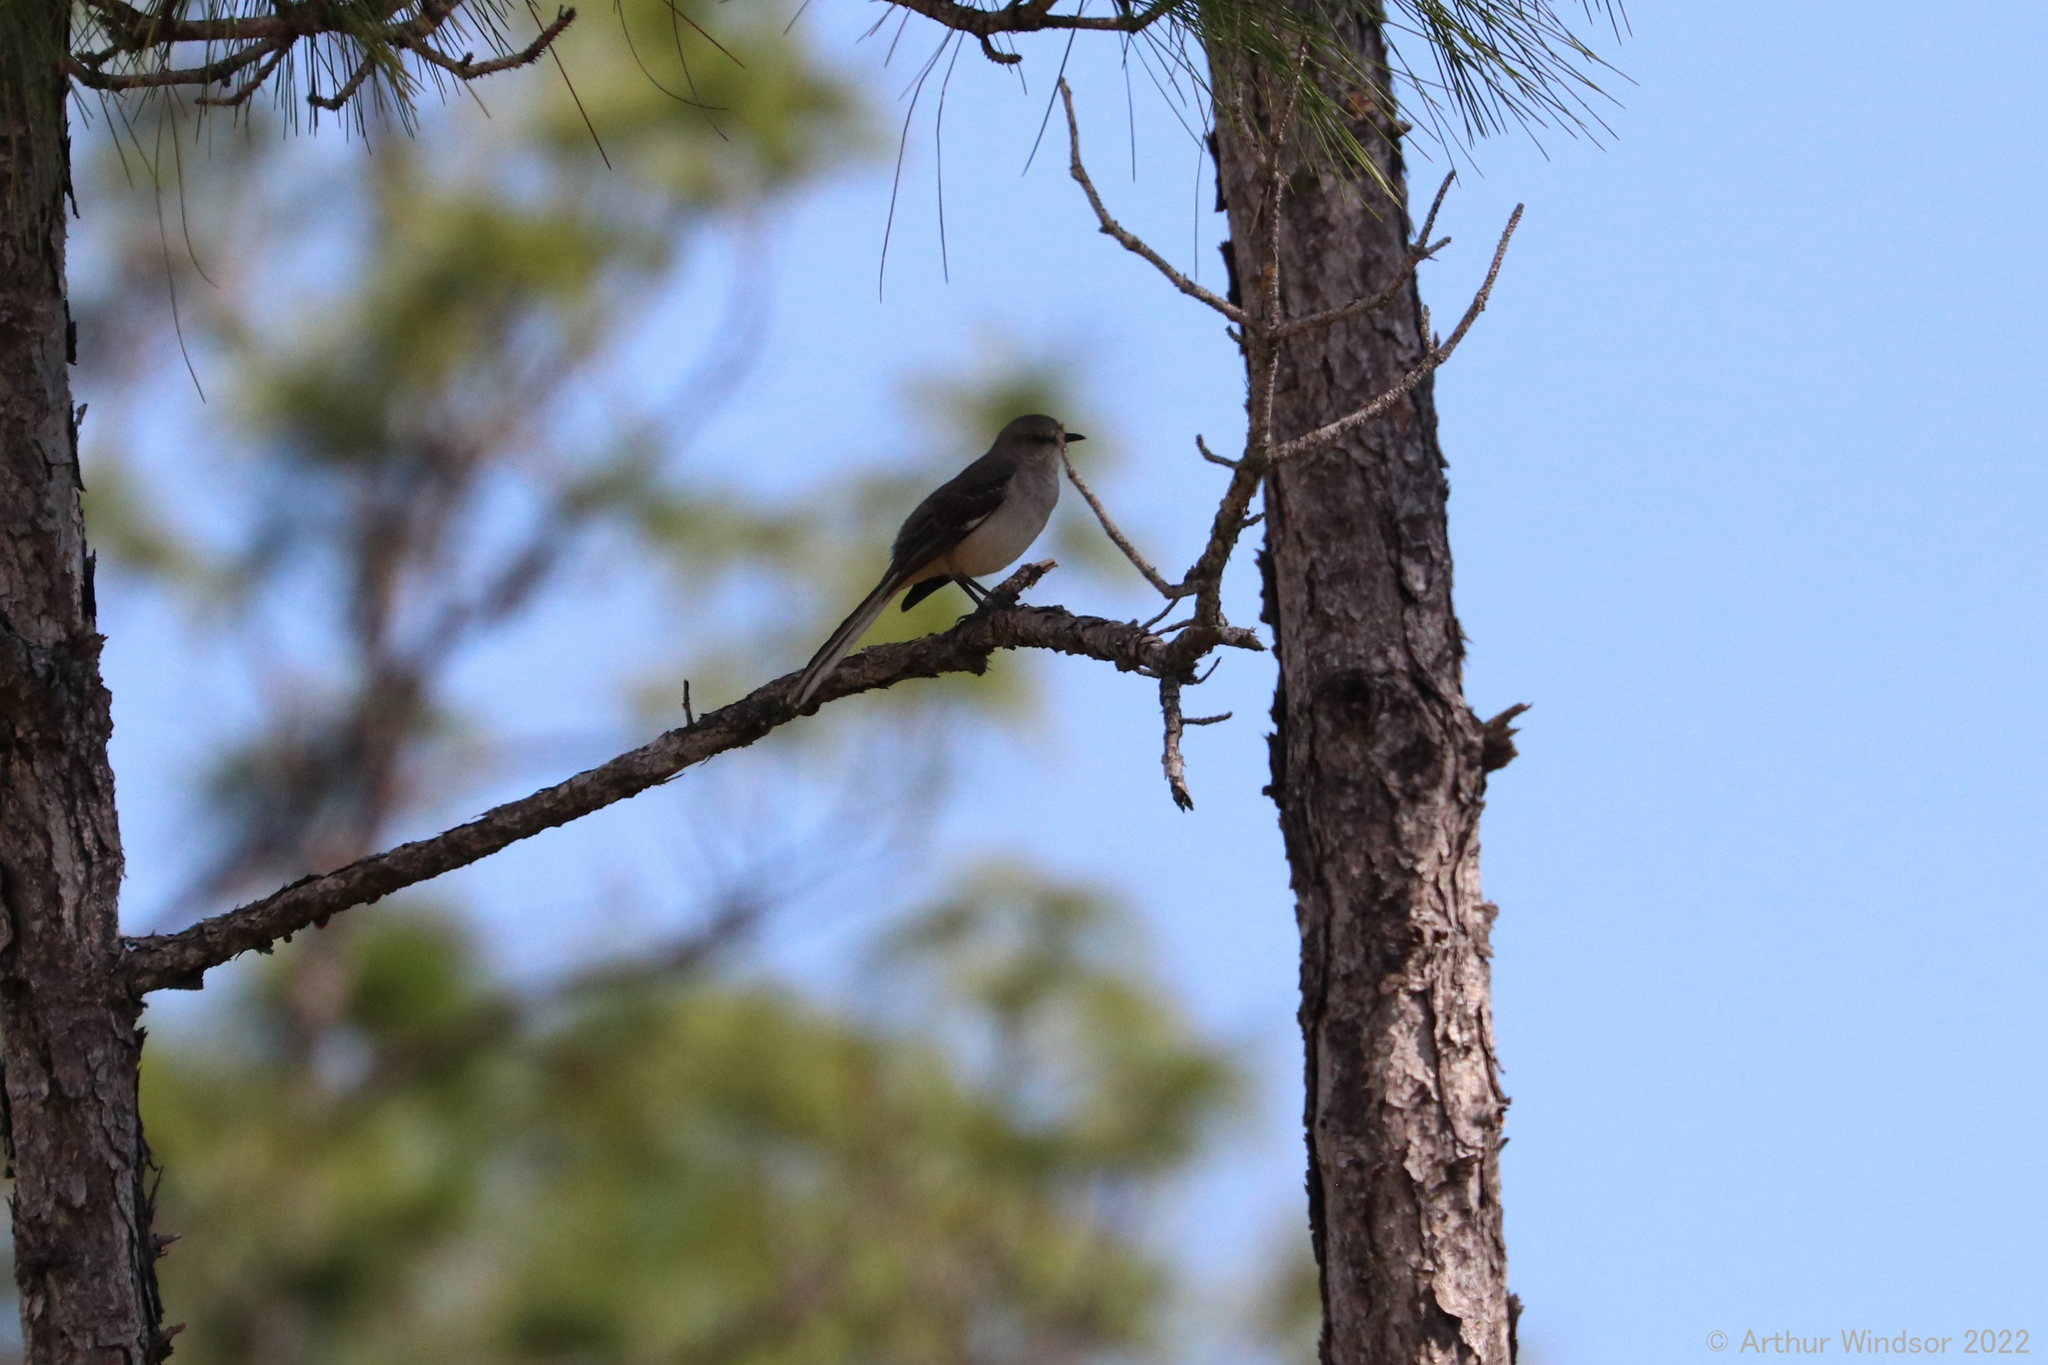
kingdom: Animalia
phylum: Chordata
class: Aves
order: Passeriformes
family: Mimidae
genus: Mimus
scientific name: Mimus polyglottos
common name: Northern mockingbird
